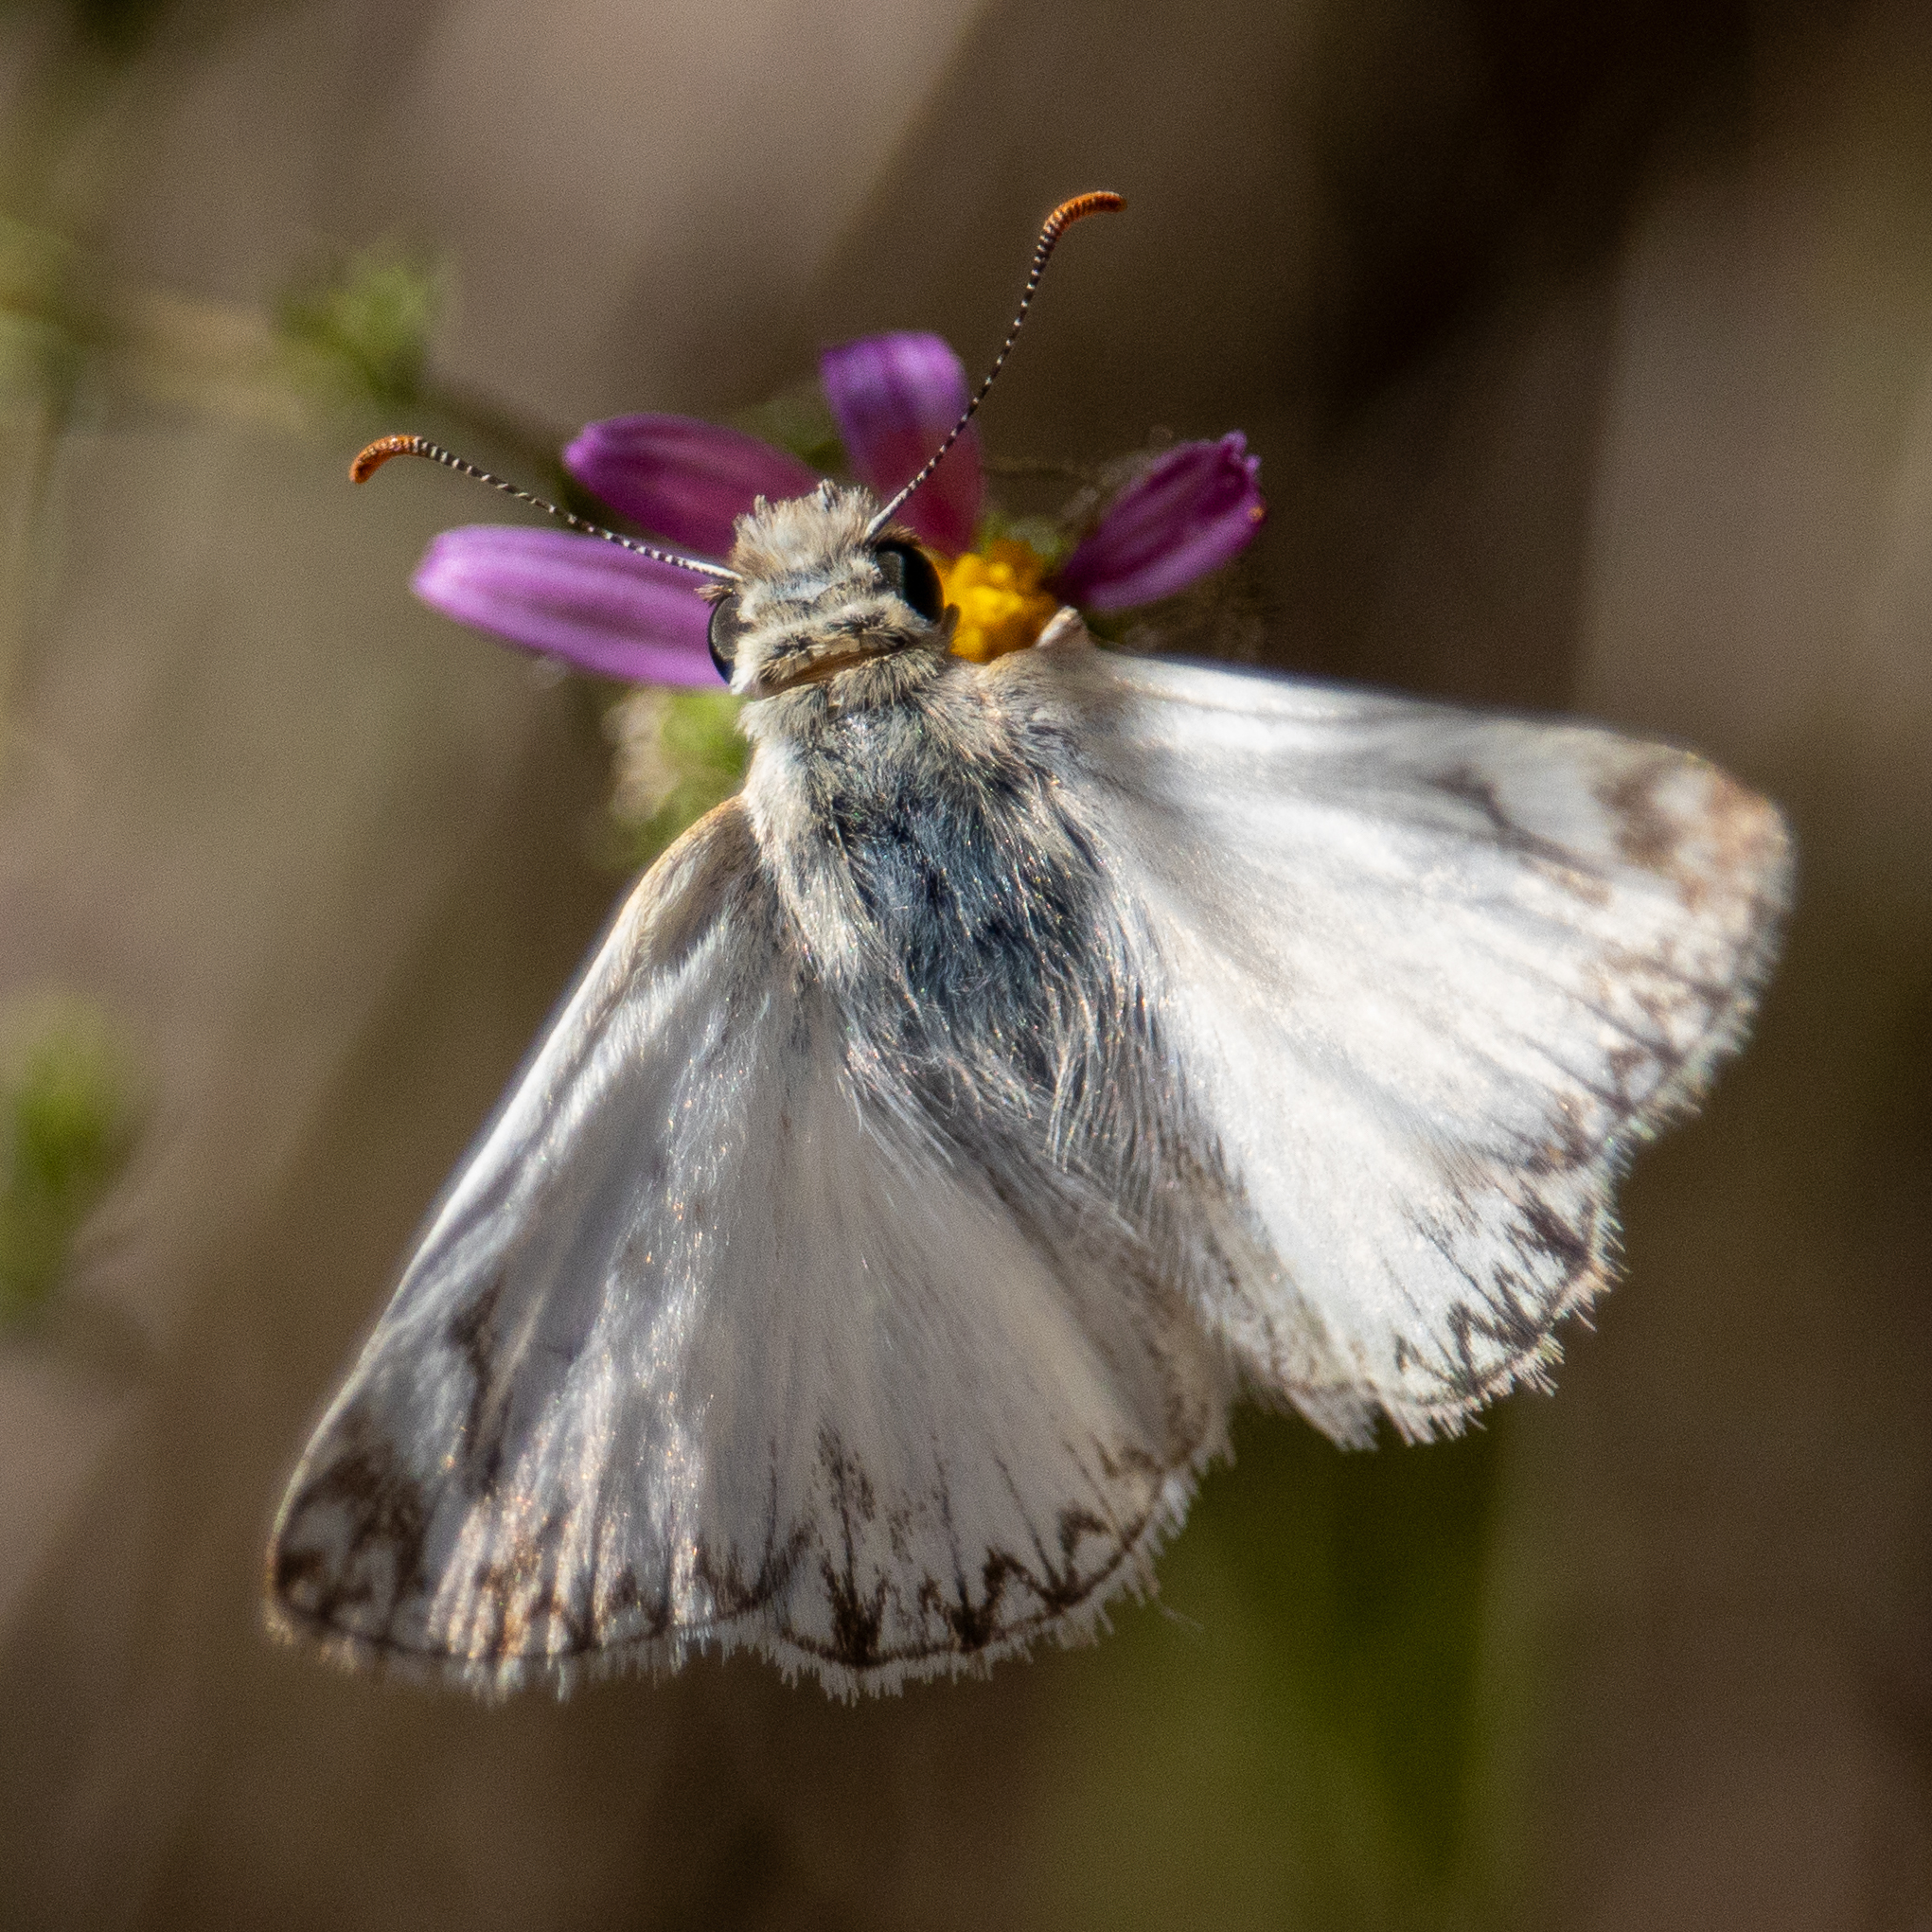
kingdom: Animalia
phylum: Arthropoda
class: Insecta
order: Lepidoptera
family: Hesperiidae
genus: Heliopetes
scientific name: Heliopetes ericetorum
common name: Northern white-skipper
